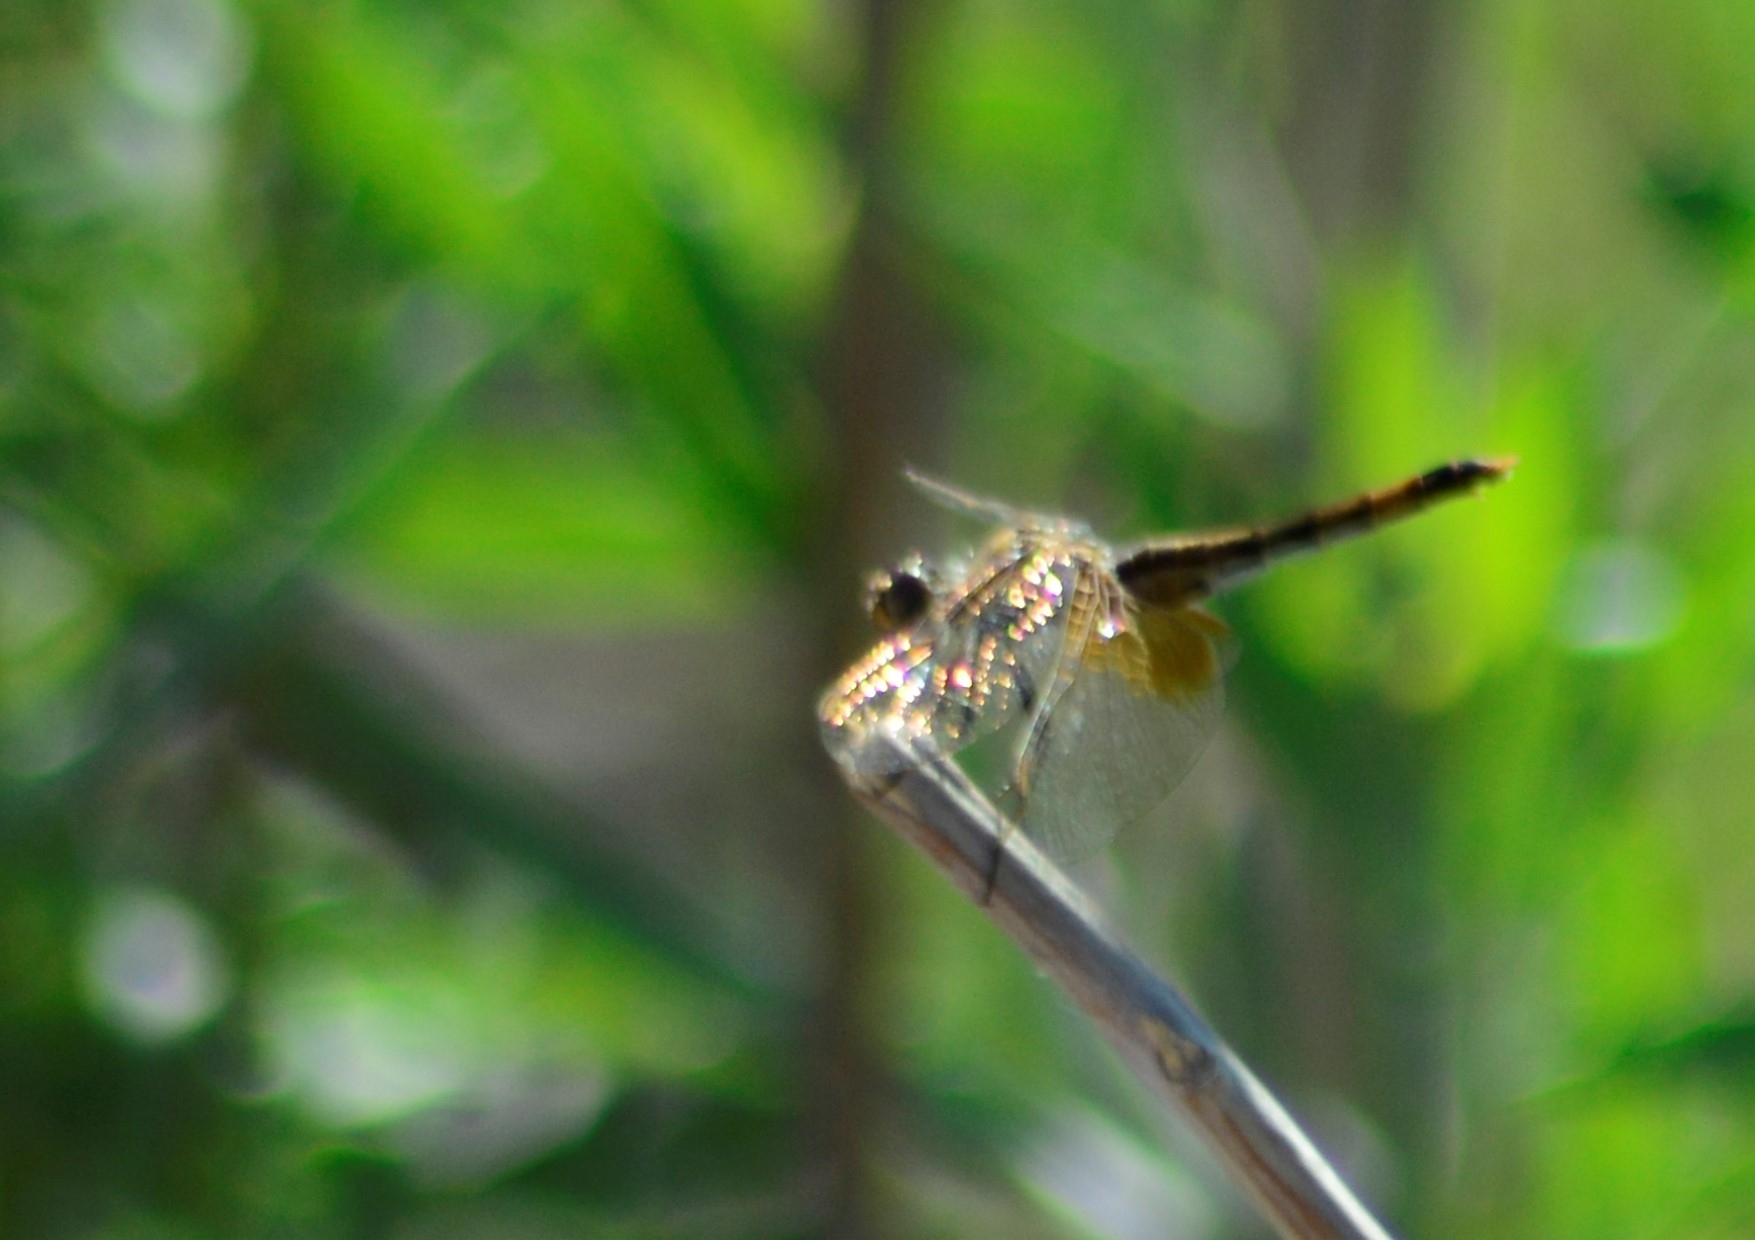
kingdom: Animalia
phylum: Arthropoda
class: Insecta
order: Odonata
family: Libellulidae
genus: Erythrodiplax
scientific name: Erythrodiplax corallina
